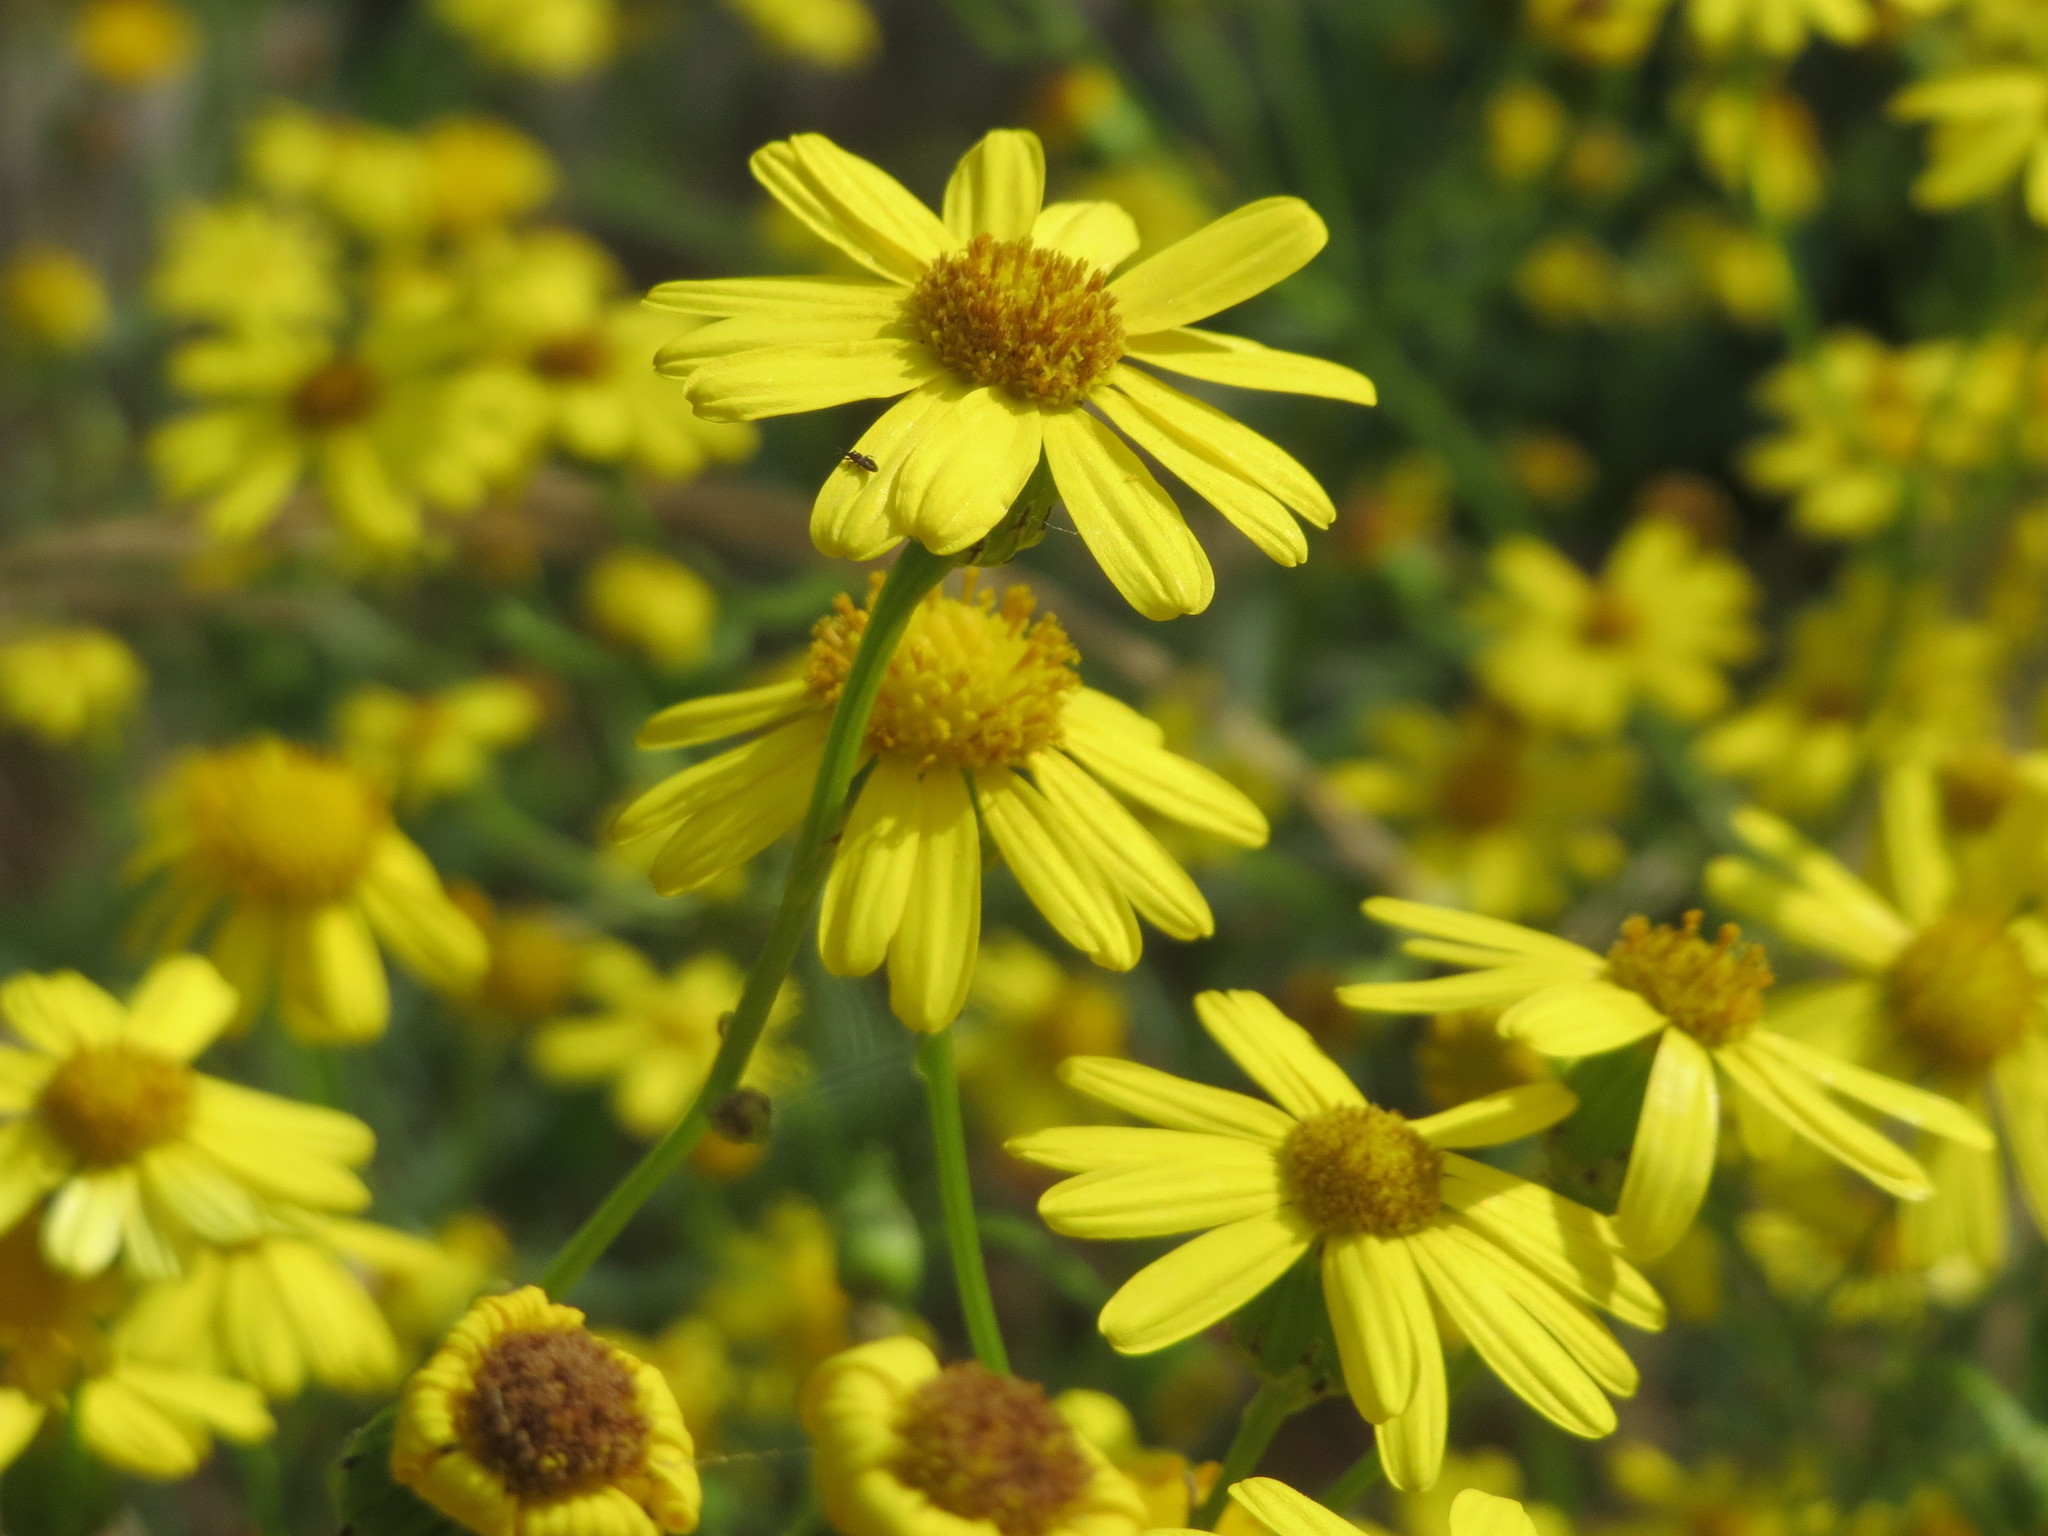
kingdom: Plantae
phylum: Tracheophyta
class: Magnoliopsida
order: Asterales
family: Asteraceae
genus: Senecio
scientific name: Senecio inaequidens
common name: Narrow-leaved ragwort
